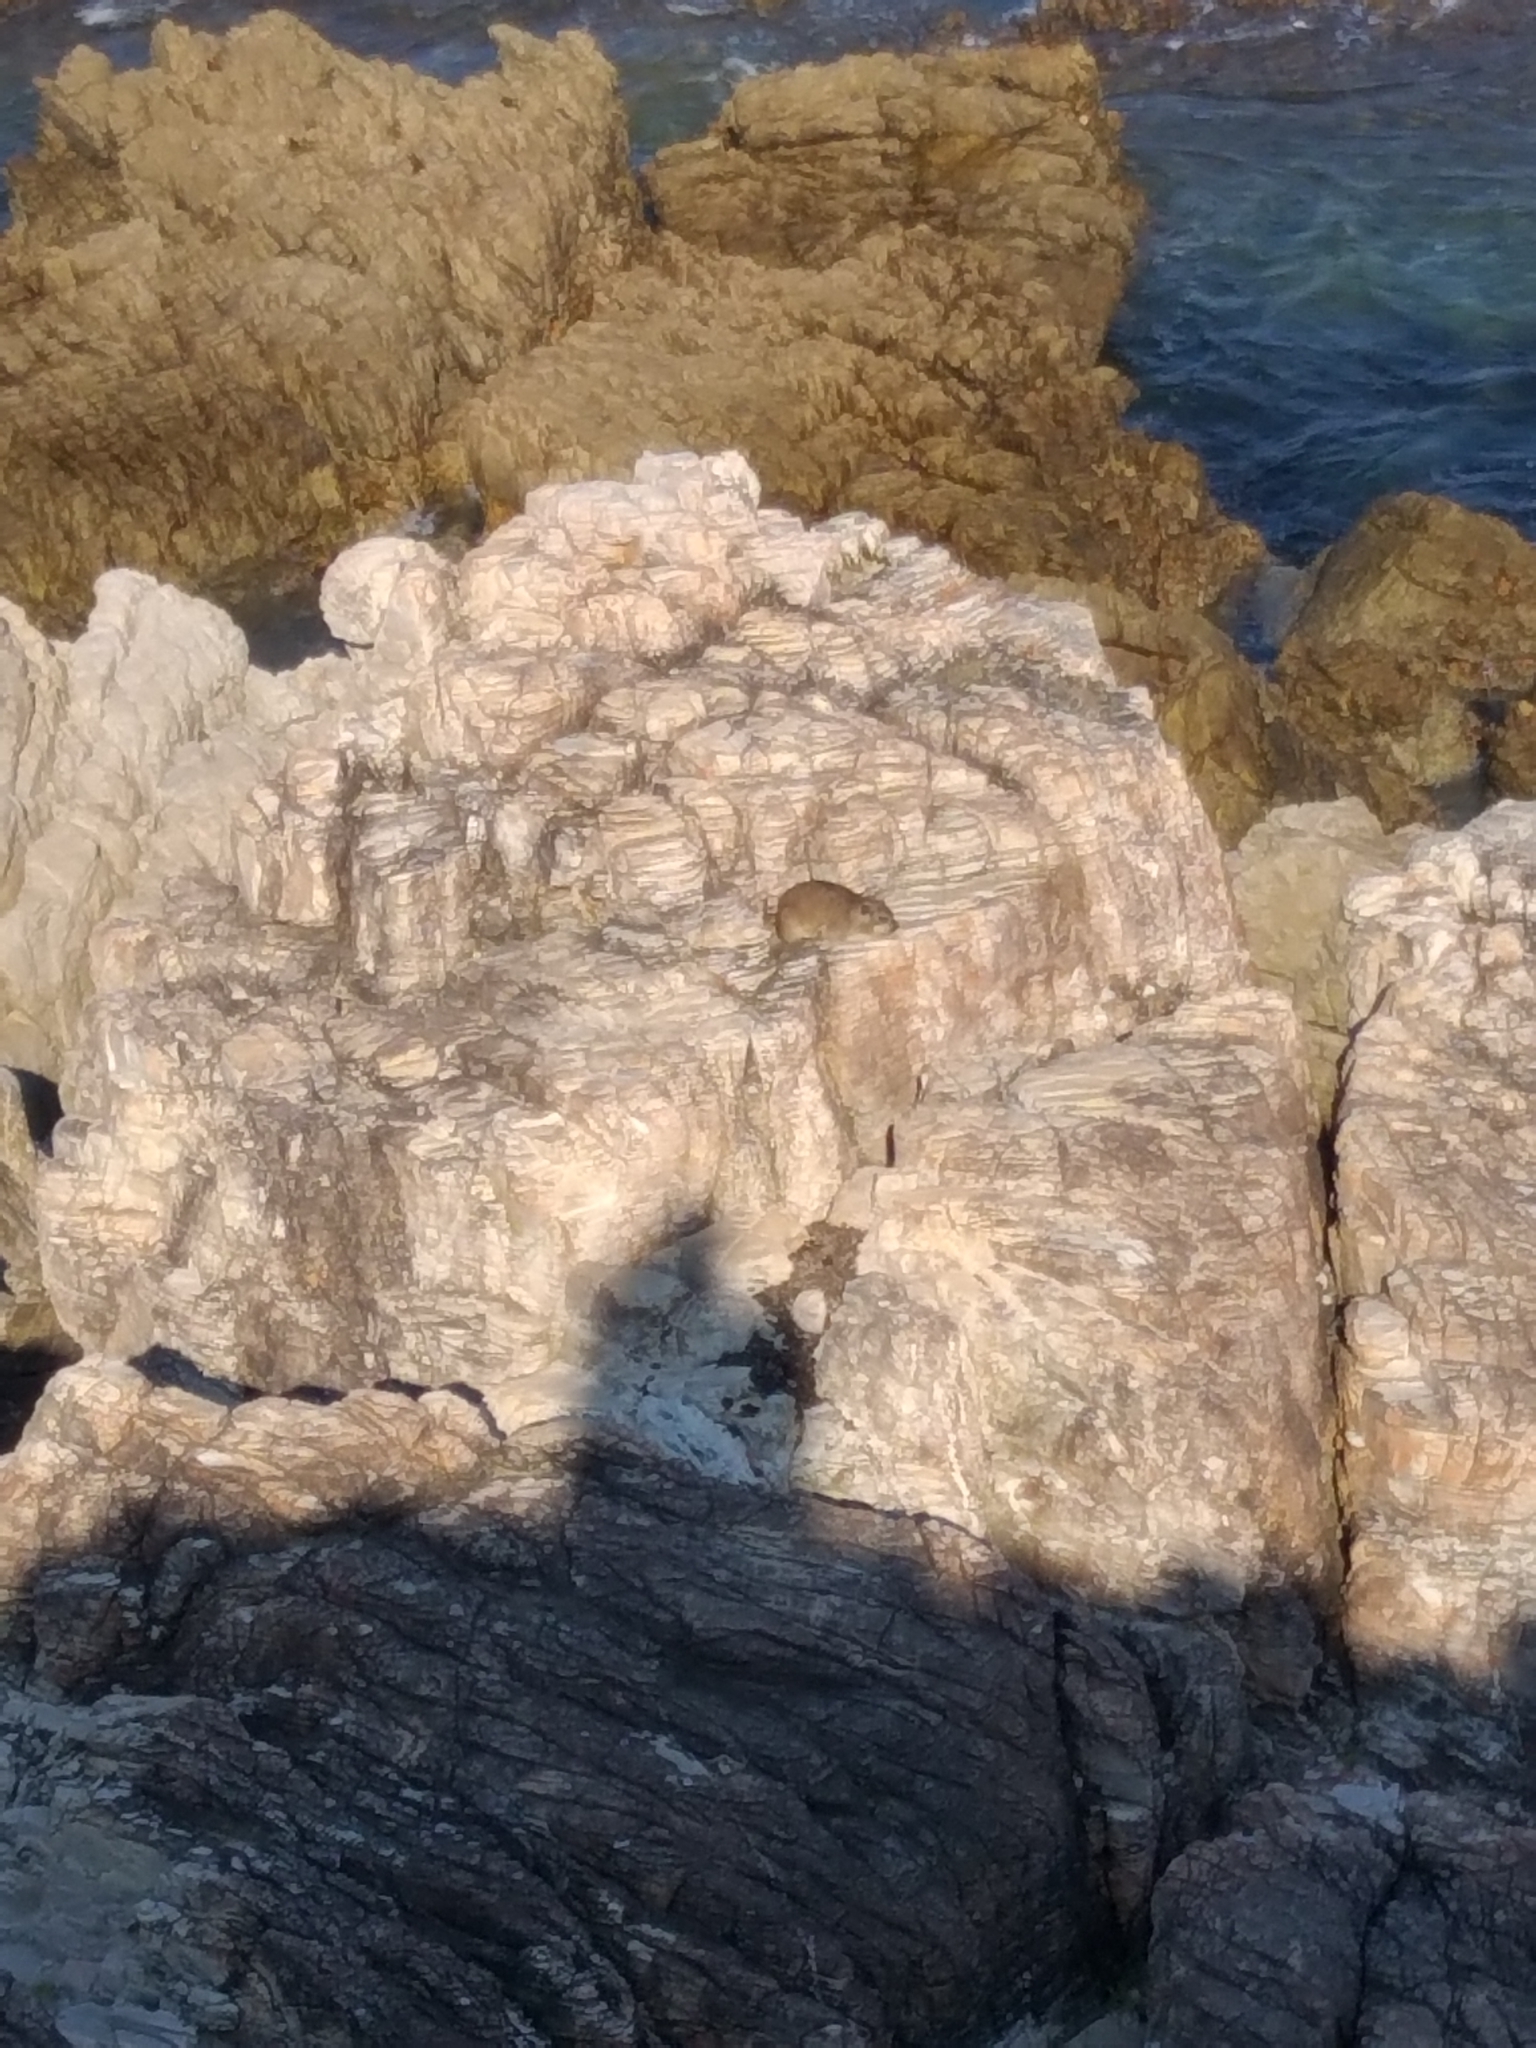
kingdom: Animalia
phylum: Chordata
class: Mammalia
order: Hyracoidea
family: Procaviidae
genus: Procavia
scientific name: Procavia capensis
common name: Rock hyrax
